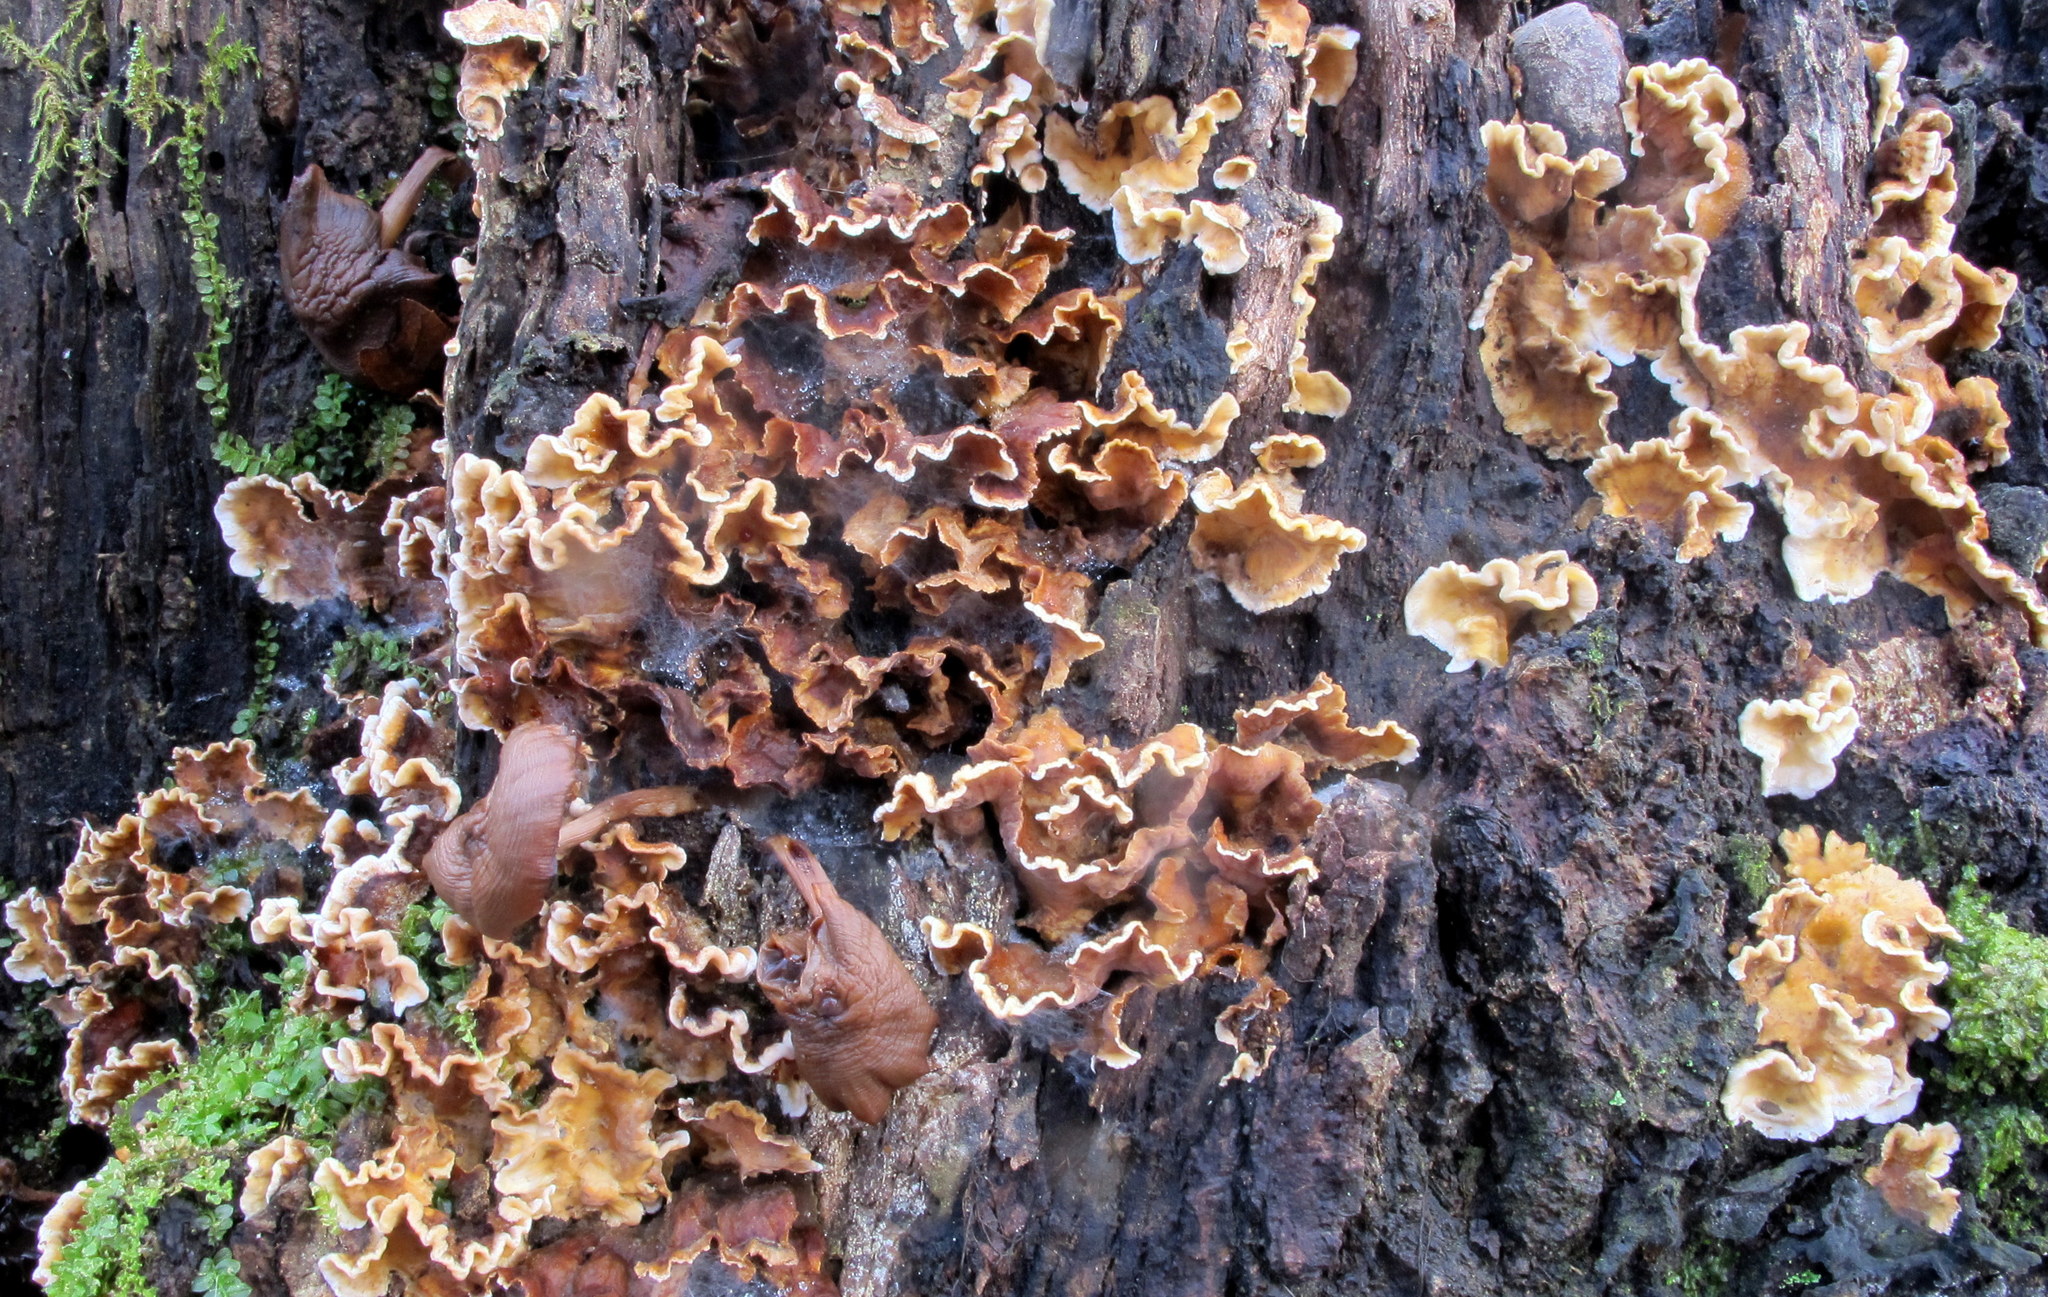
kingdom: Fungi
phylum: Basidiomycota
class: Agaricomycetes
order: Russulales
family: Stereaceae
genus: Stereum
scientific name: Stereum complicatum
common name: Crowded parchment
